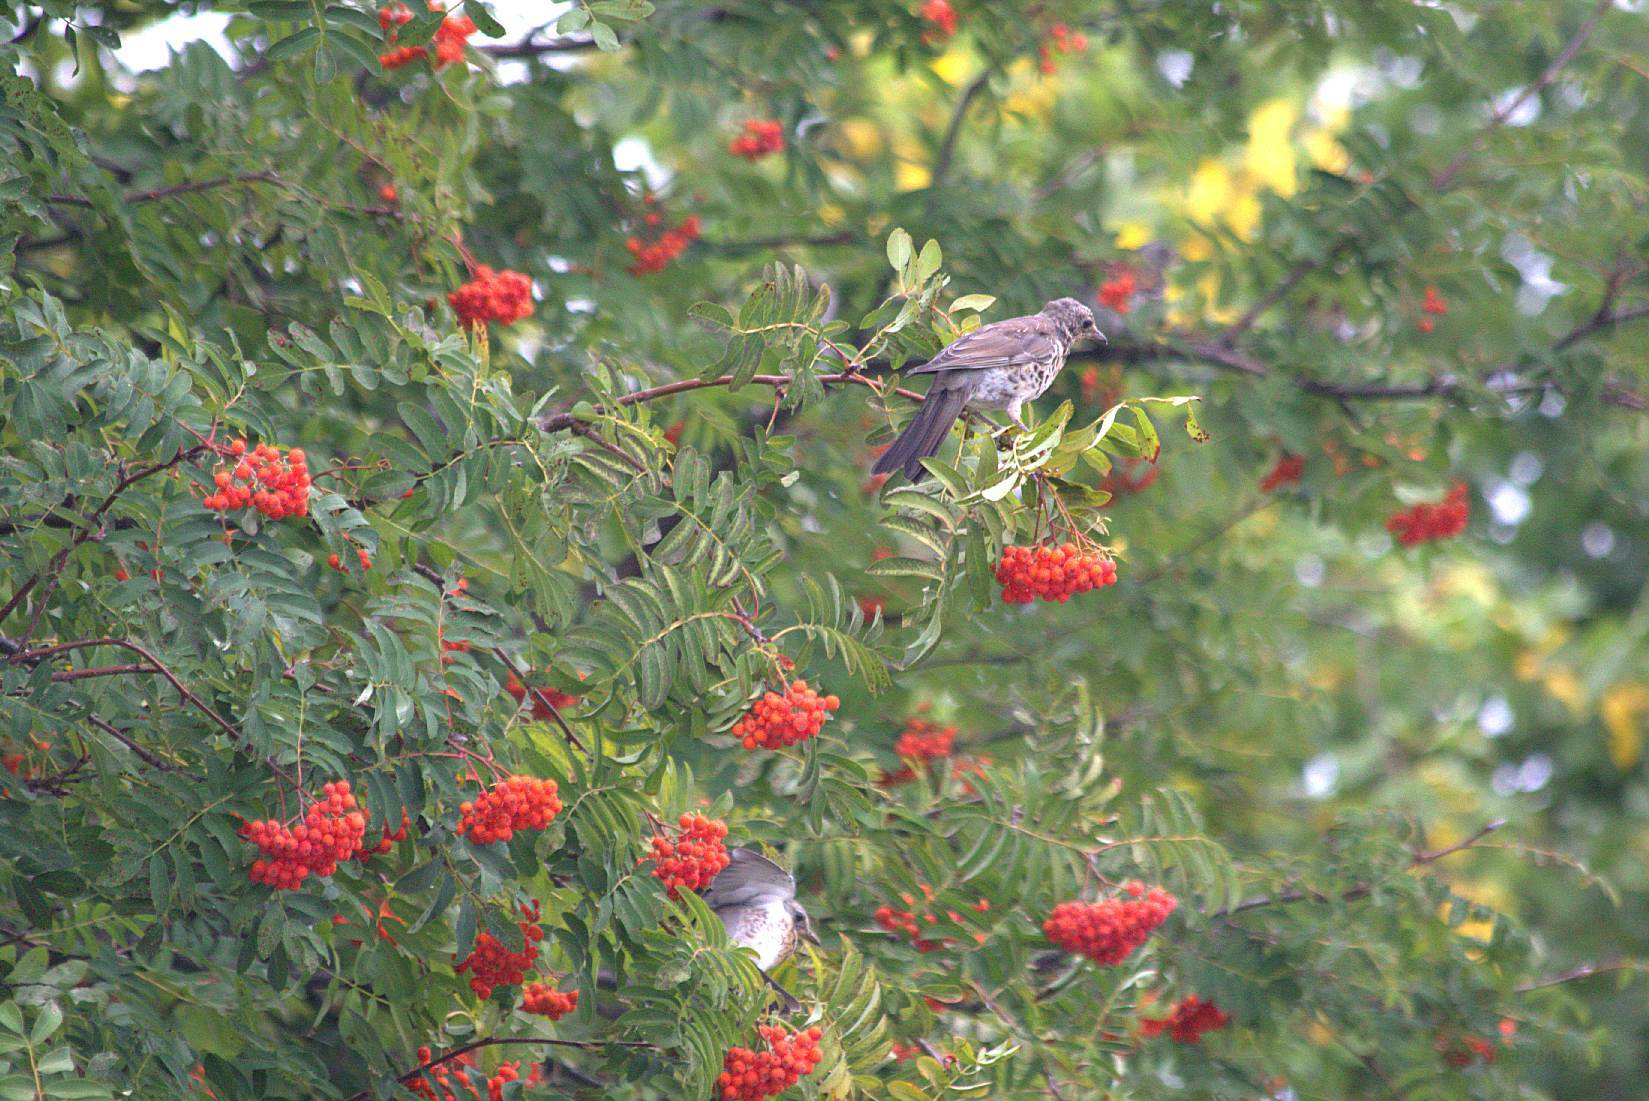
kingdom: Animalia
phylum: Chordata
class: Aves
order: Passeriformes
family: Turdidae
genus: Turdus
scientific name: Turdus pilaris
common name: Fieldfare
